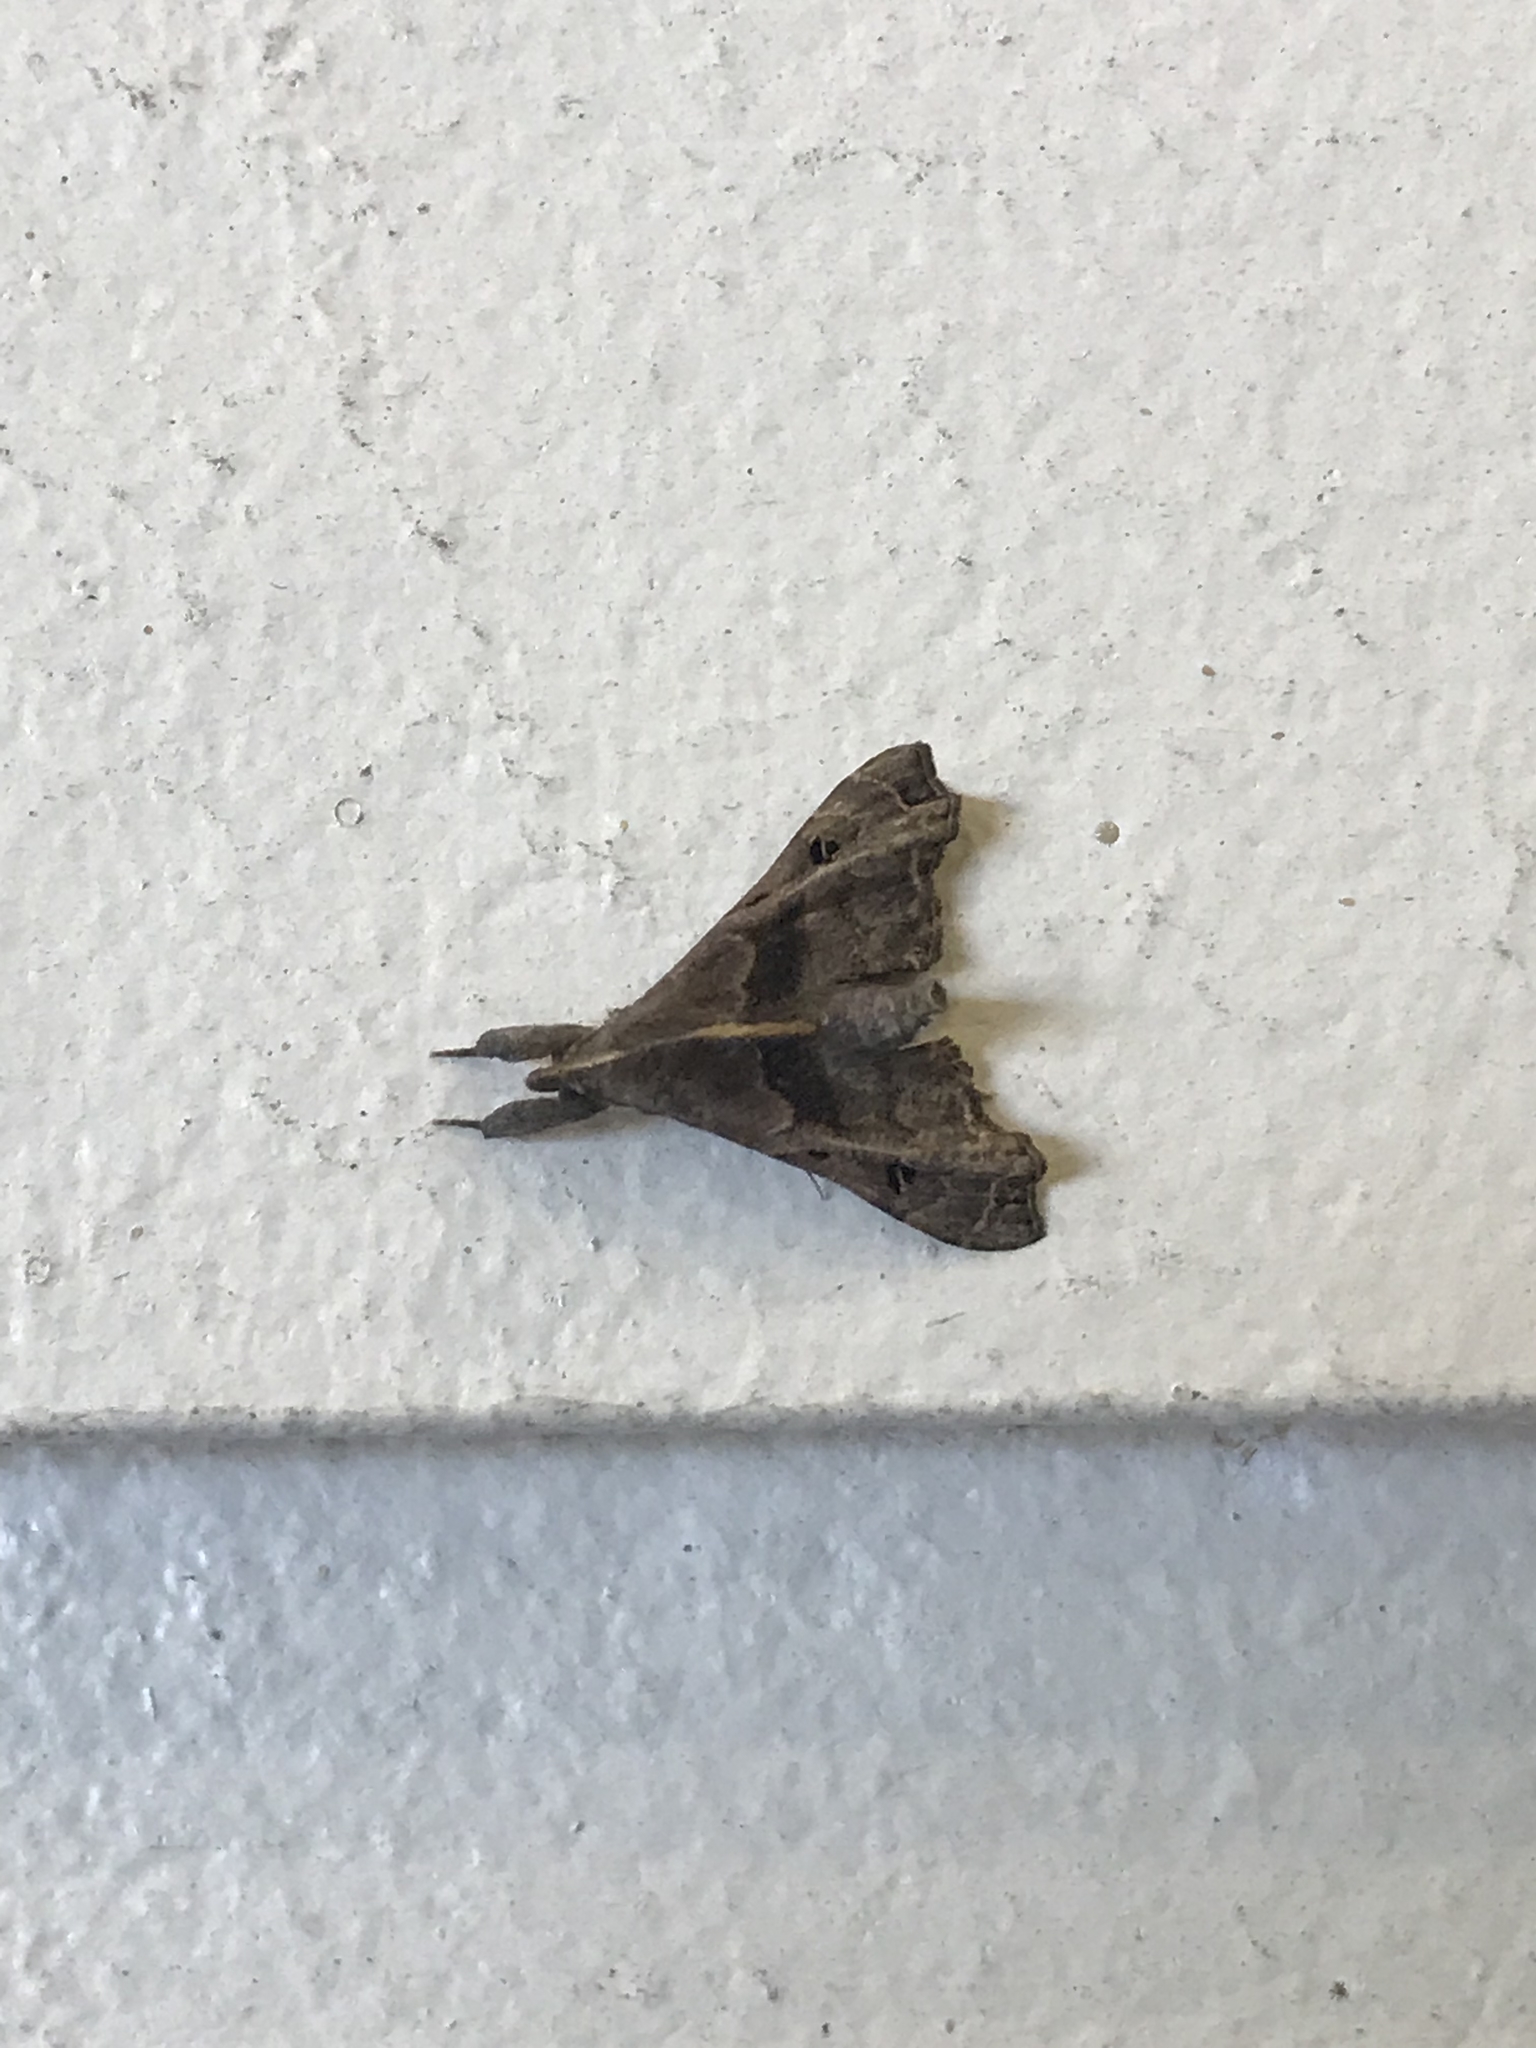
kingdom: Animalia
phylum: Arthropoda
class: Insecta
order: Lepidoptera
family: Erebidae
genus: Palthis
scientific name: Palthis asopialis
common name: Faint-spotted palthis moth
